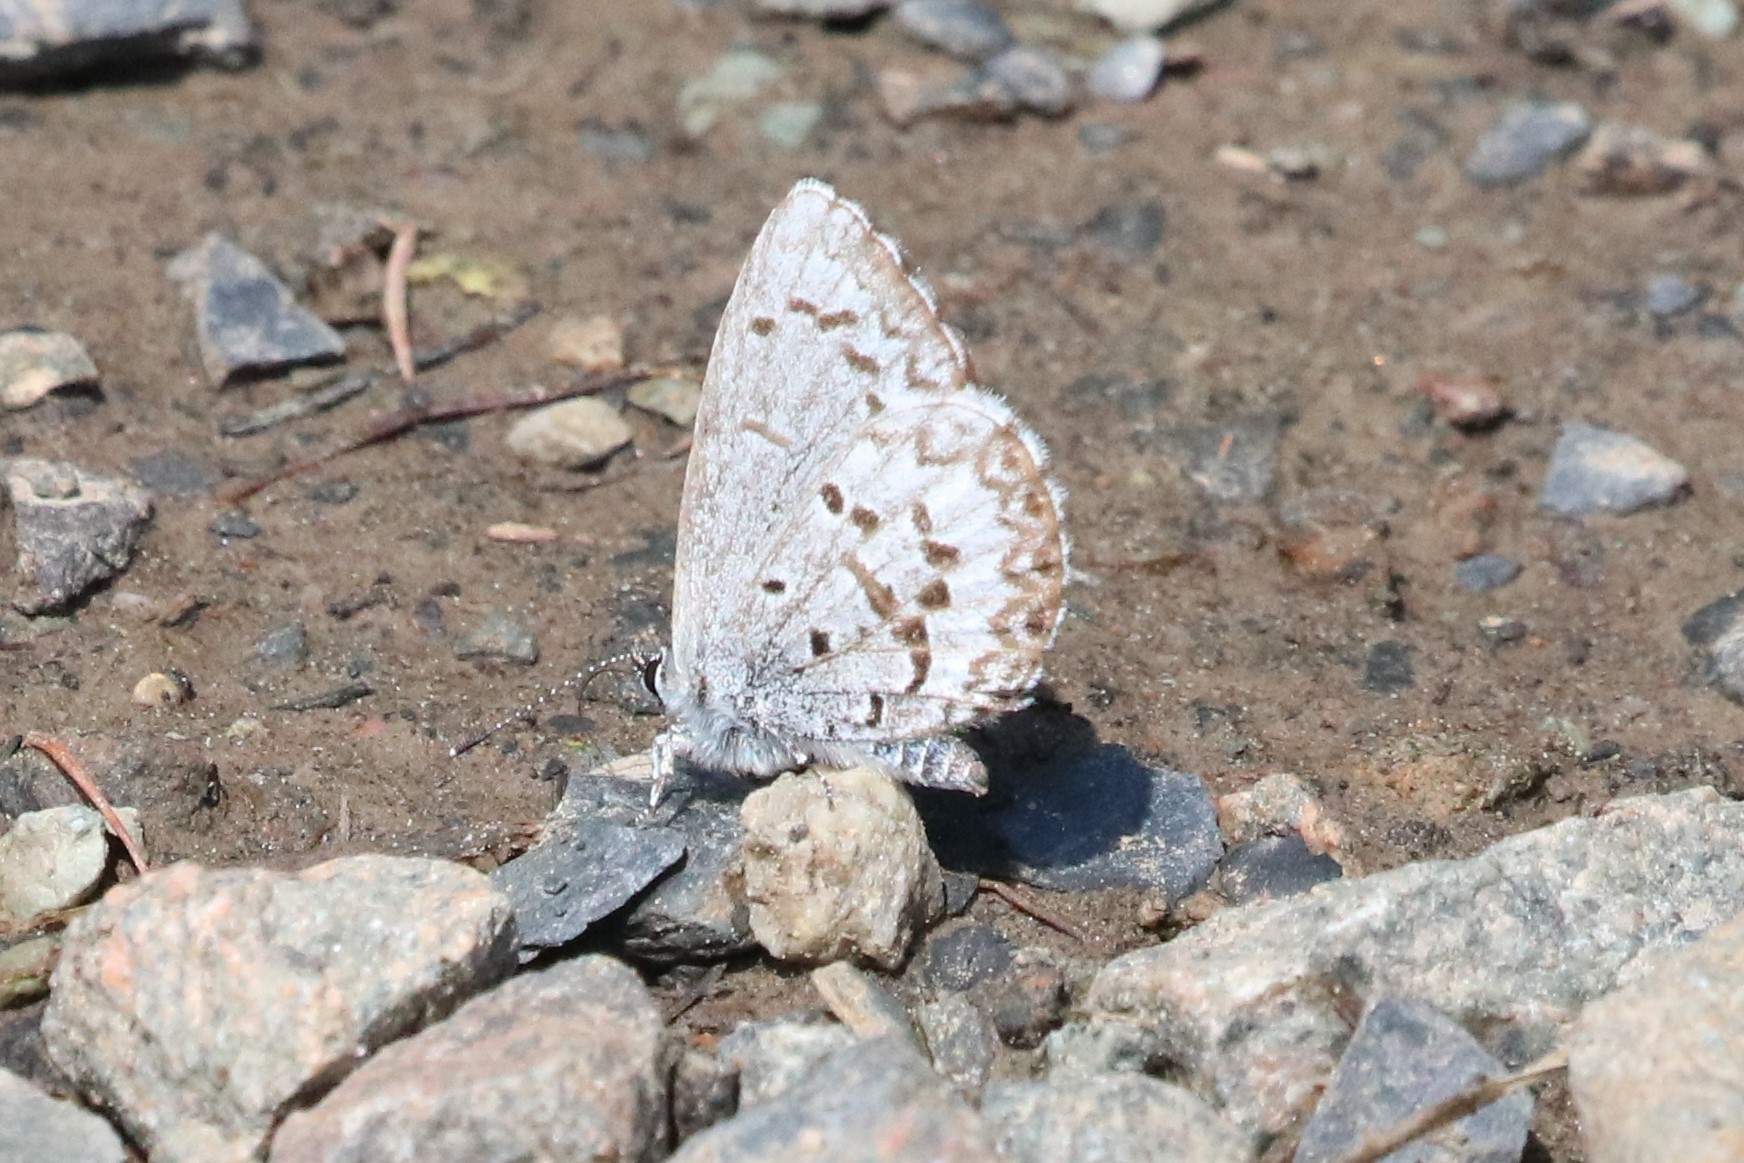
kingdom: Animalia
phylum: Arthropoda
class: Insecta
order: Lepidoptera
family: Lycaenidae
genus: Celastrina
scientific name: Celastrina lucia
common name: Lucia azure
